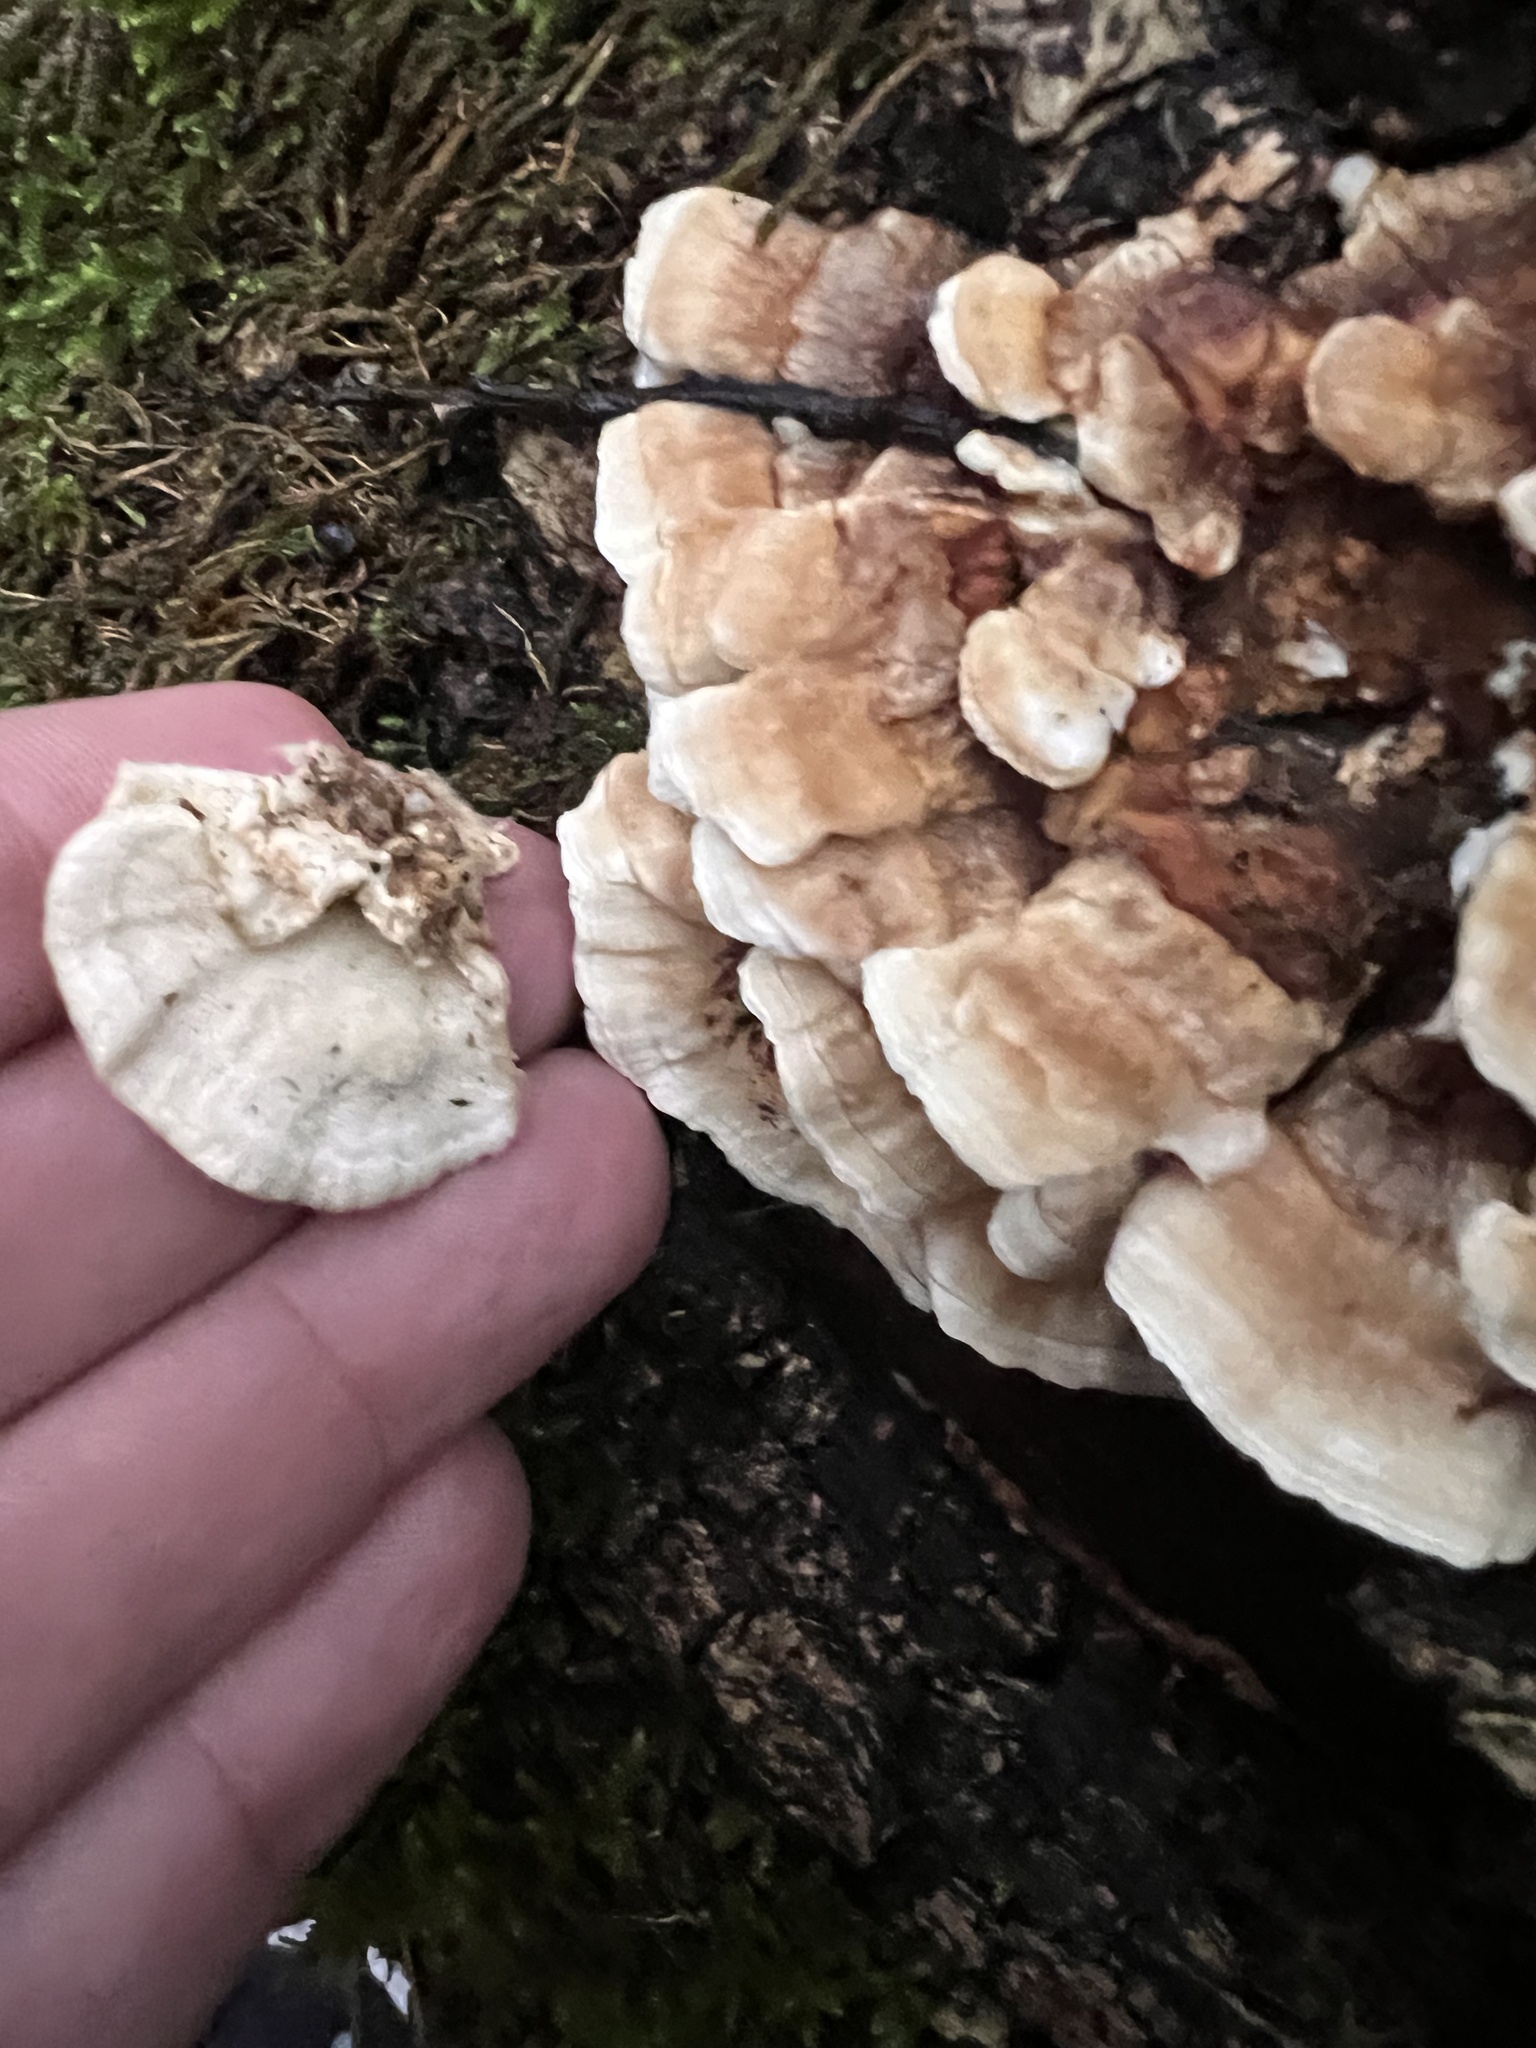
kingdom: Fungi
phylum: Basidiomycota
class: Agaricomycetes
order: Polyporales
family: Polyporaceae
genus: Trametes
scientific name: Trametes versicolor
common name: Turkeytail
